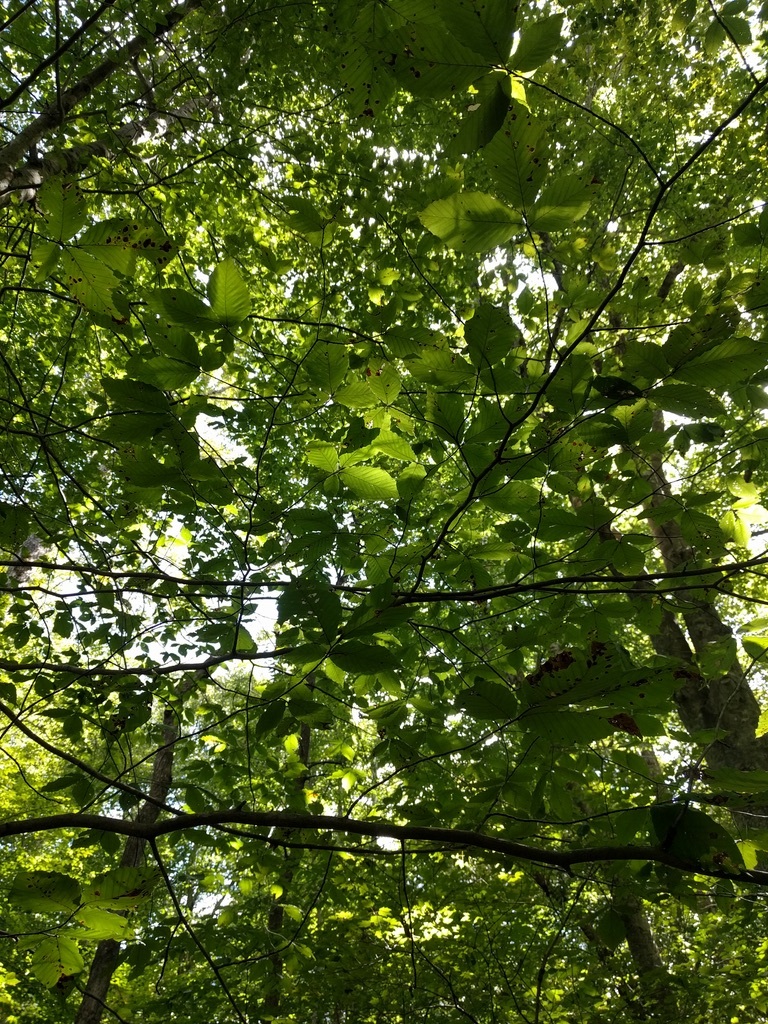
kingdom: Plantae
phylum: Tracheophyta
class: Magnoliopsida
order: Fagales
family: Fagaceae
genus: Fagus
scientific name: Fagus grandifolia
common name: American beech
